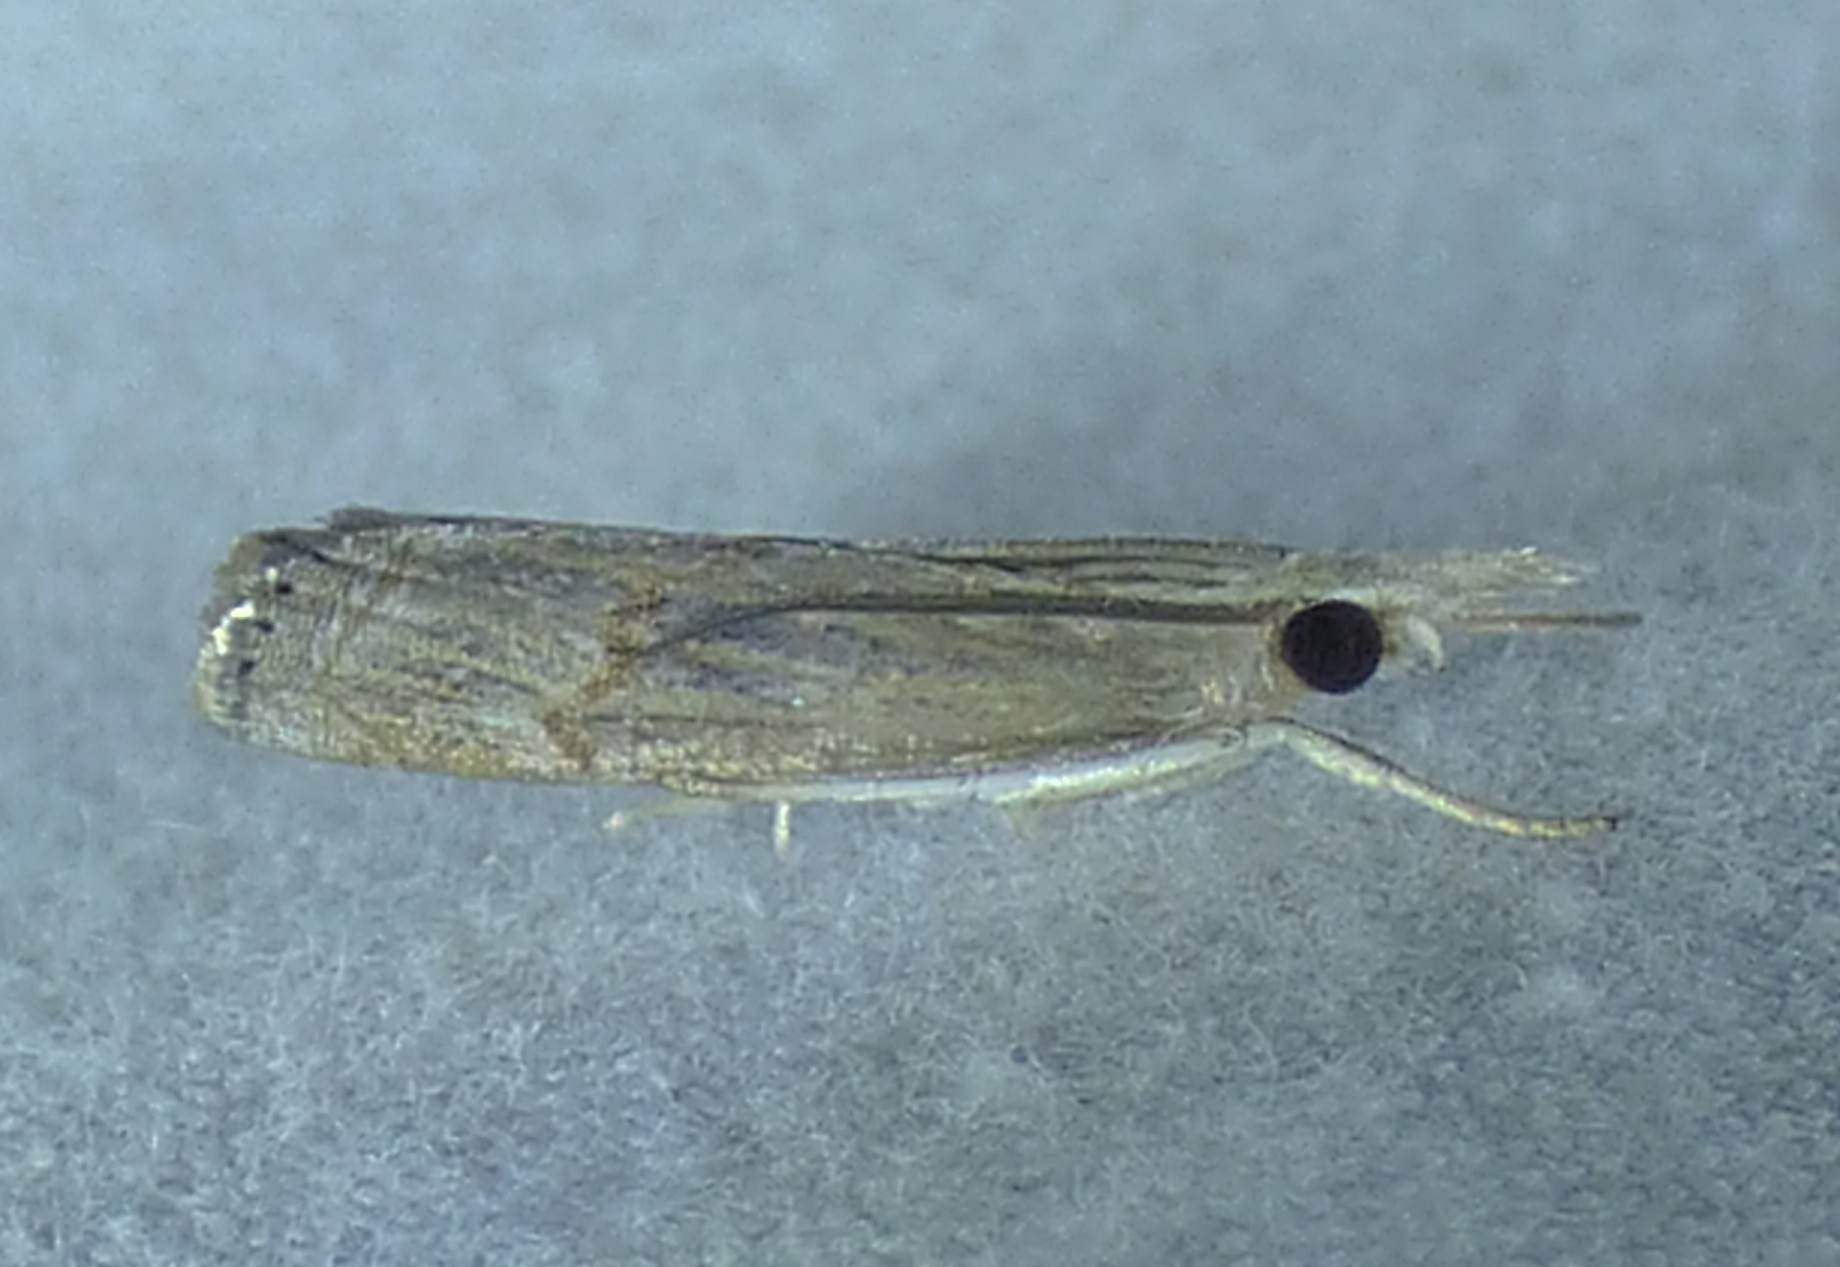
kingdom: Animalia
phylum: Arthropoda
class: Insecta
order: Lepidoptera
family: Crambidae
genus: Parapediasia
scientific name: Parapediasia teterellus
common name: Bluegrass webworm moth
